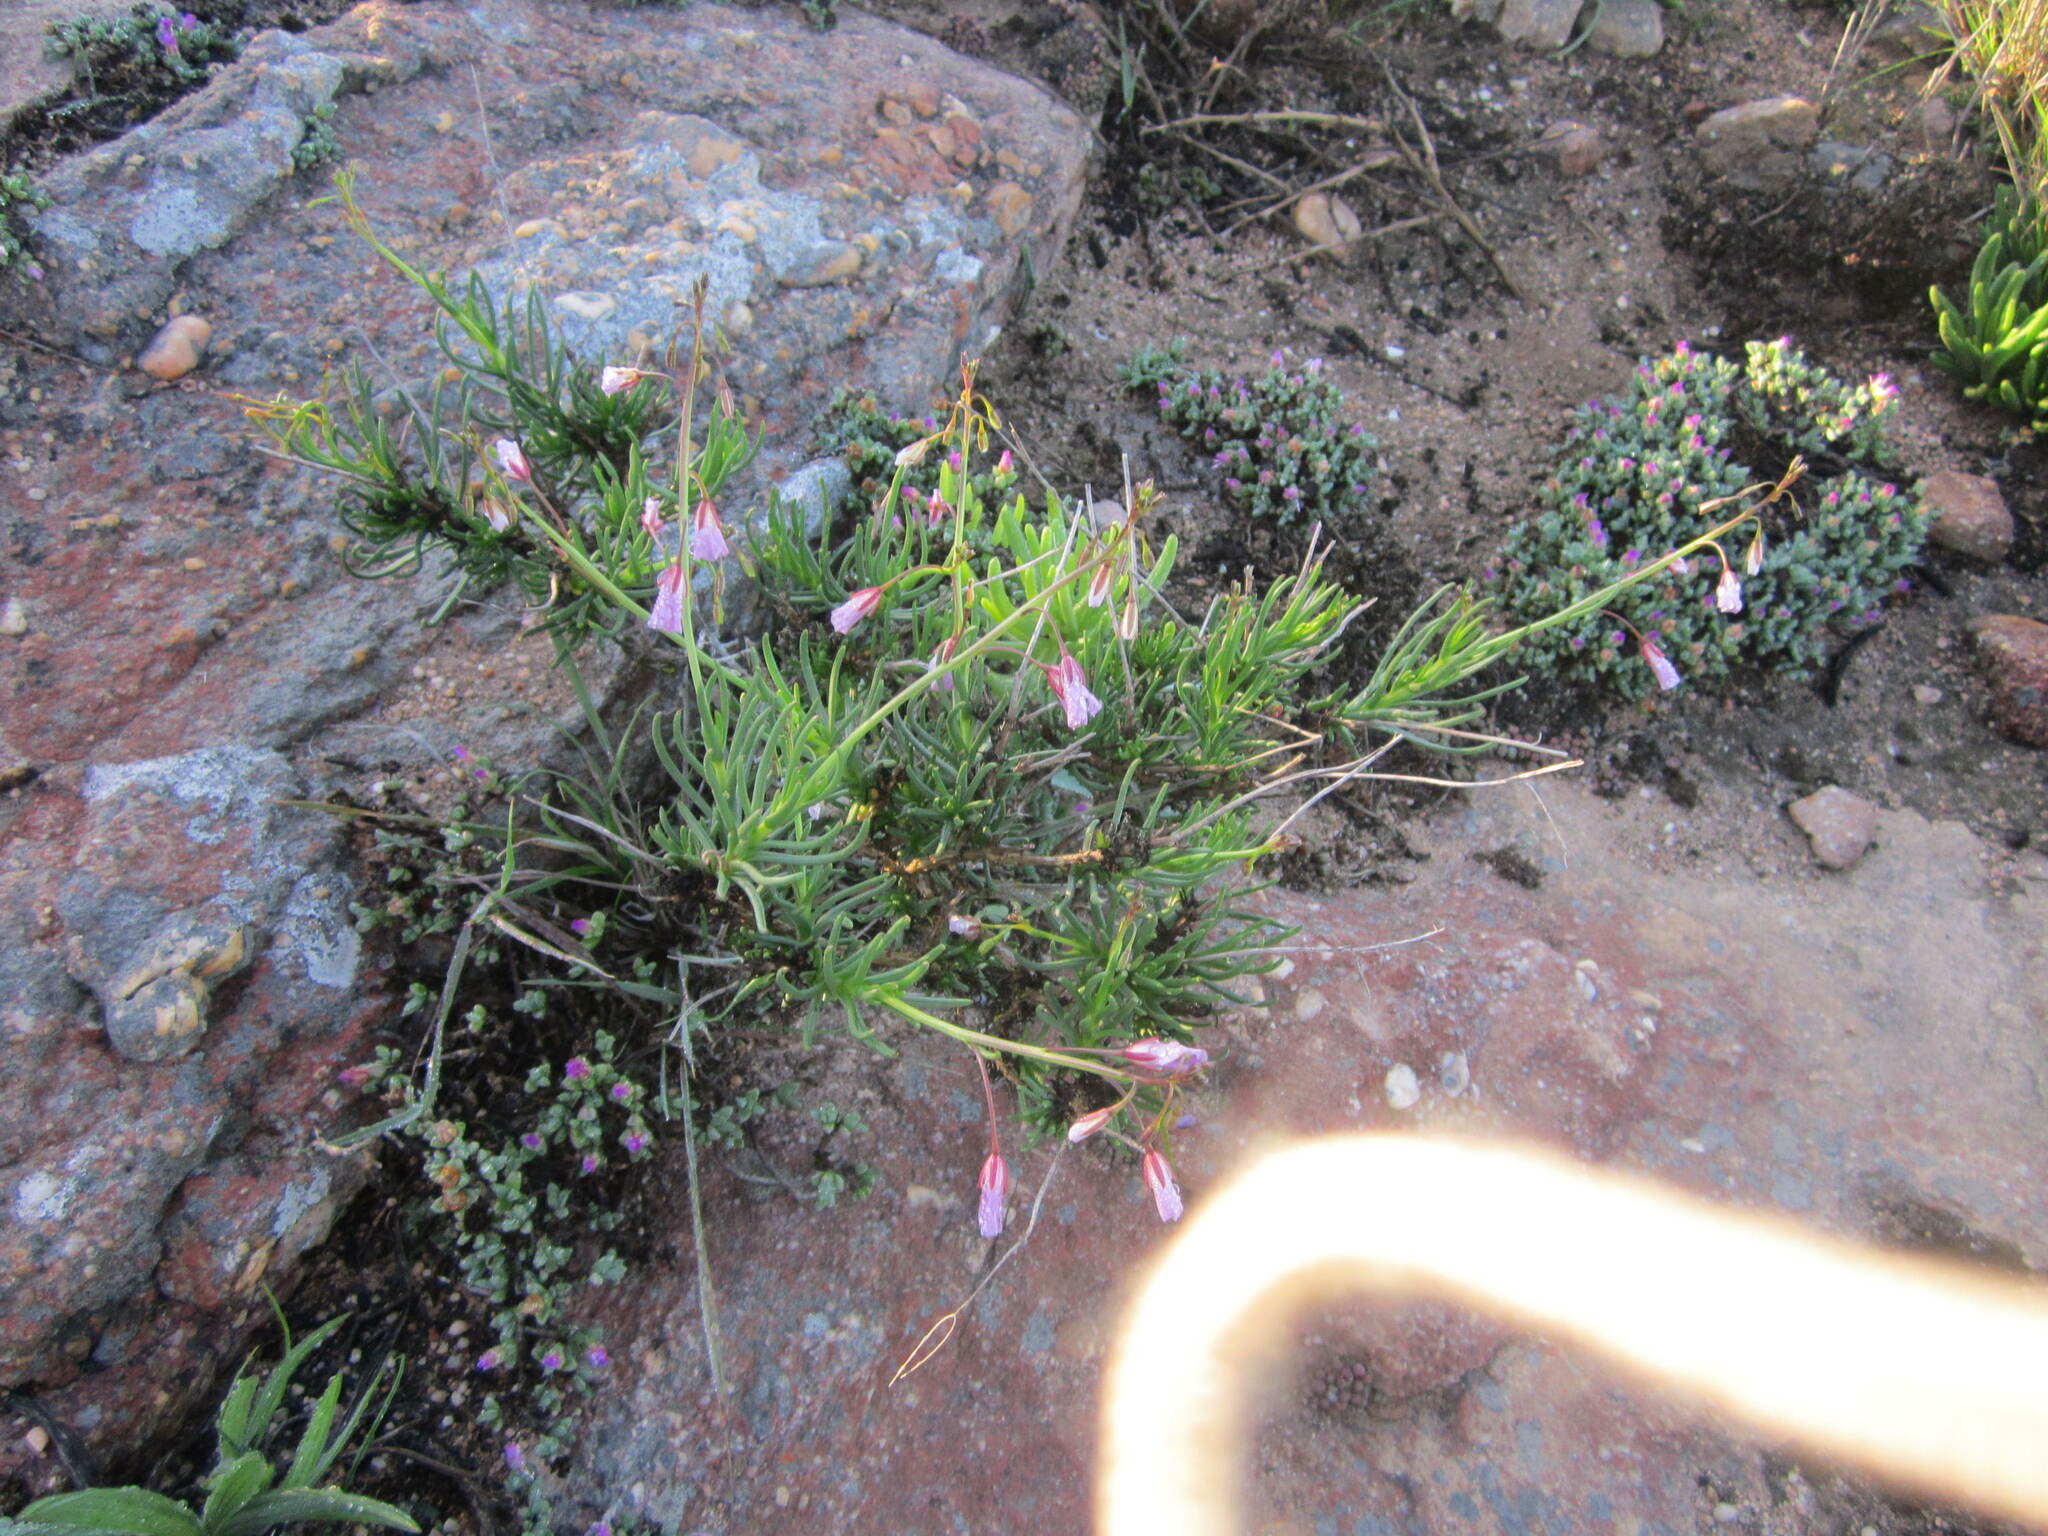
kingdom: Plantae
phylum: Tracheophyta
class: Magnoliopsida
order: Brassicales
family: Brassicaceae
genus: Heliophila
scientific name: Heliophila carnosa
